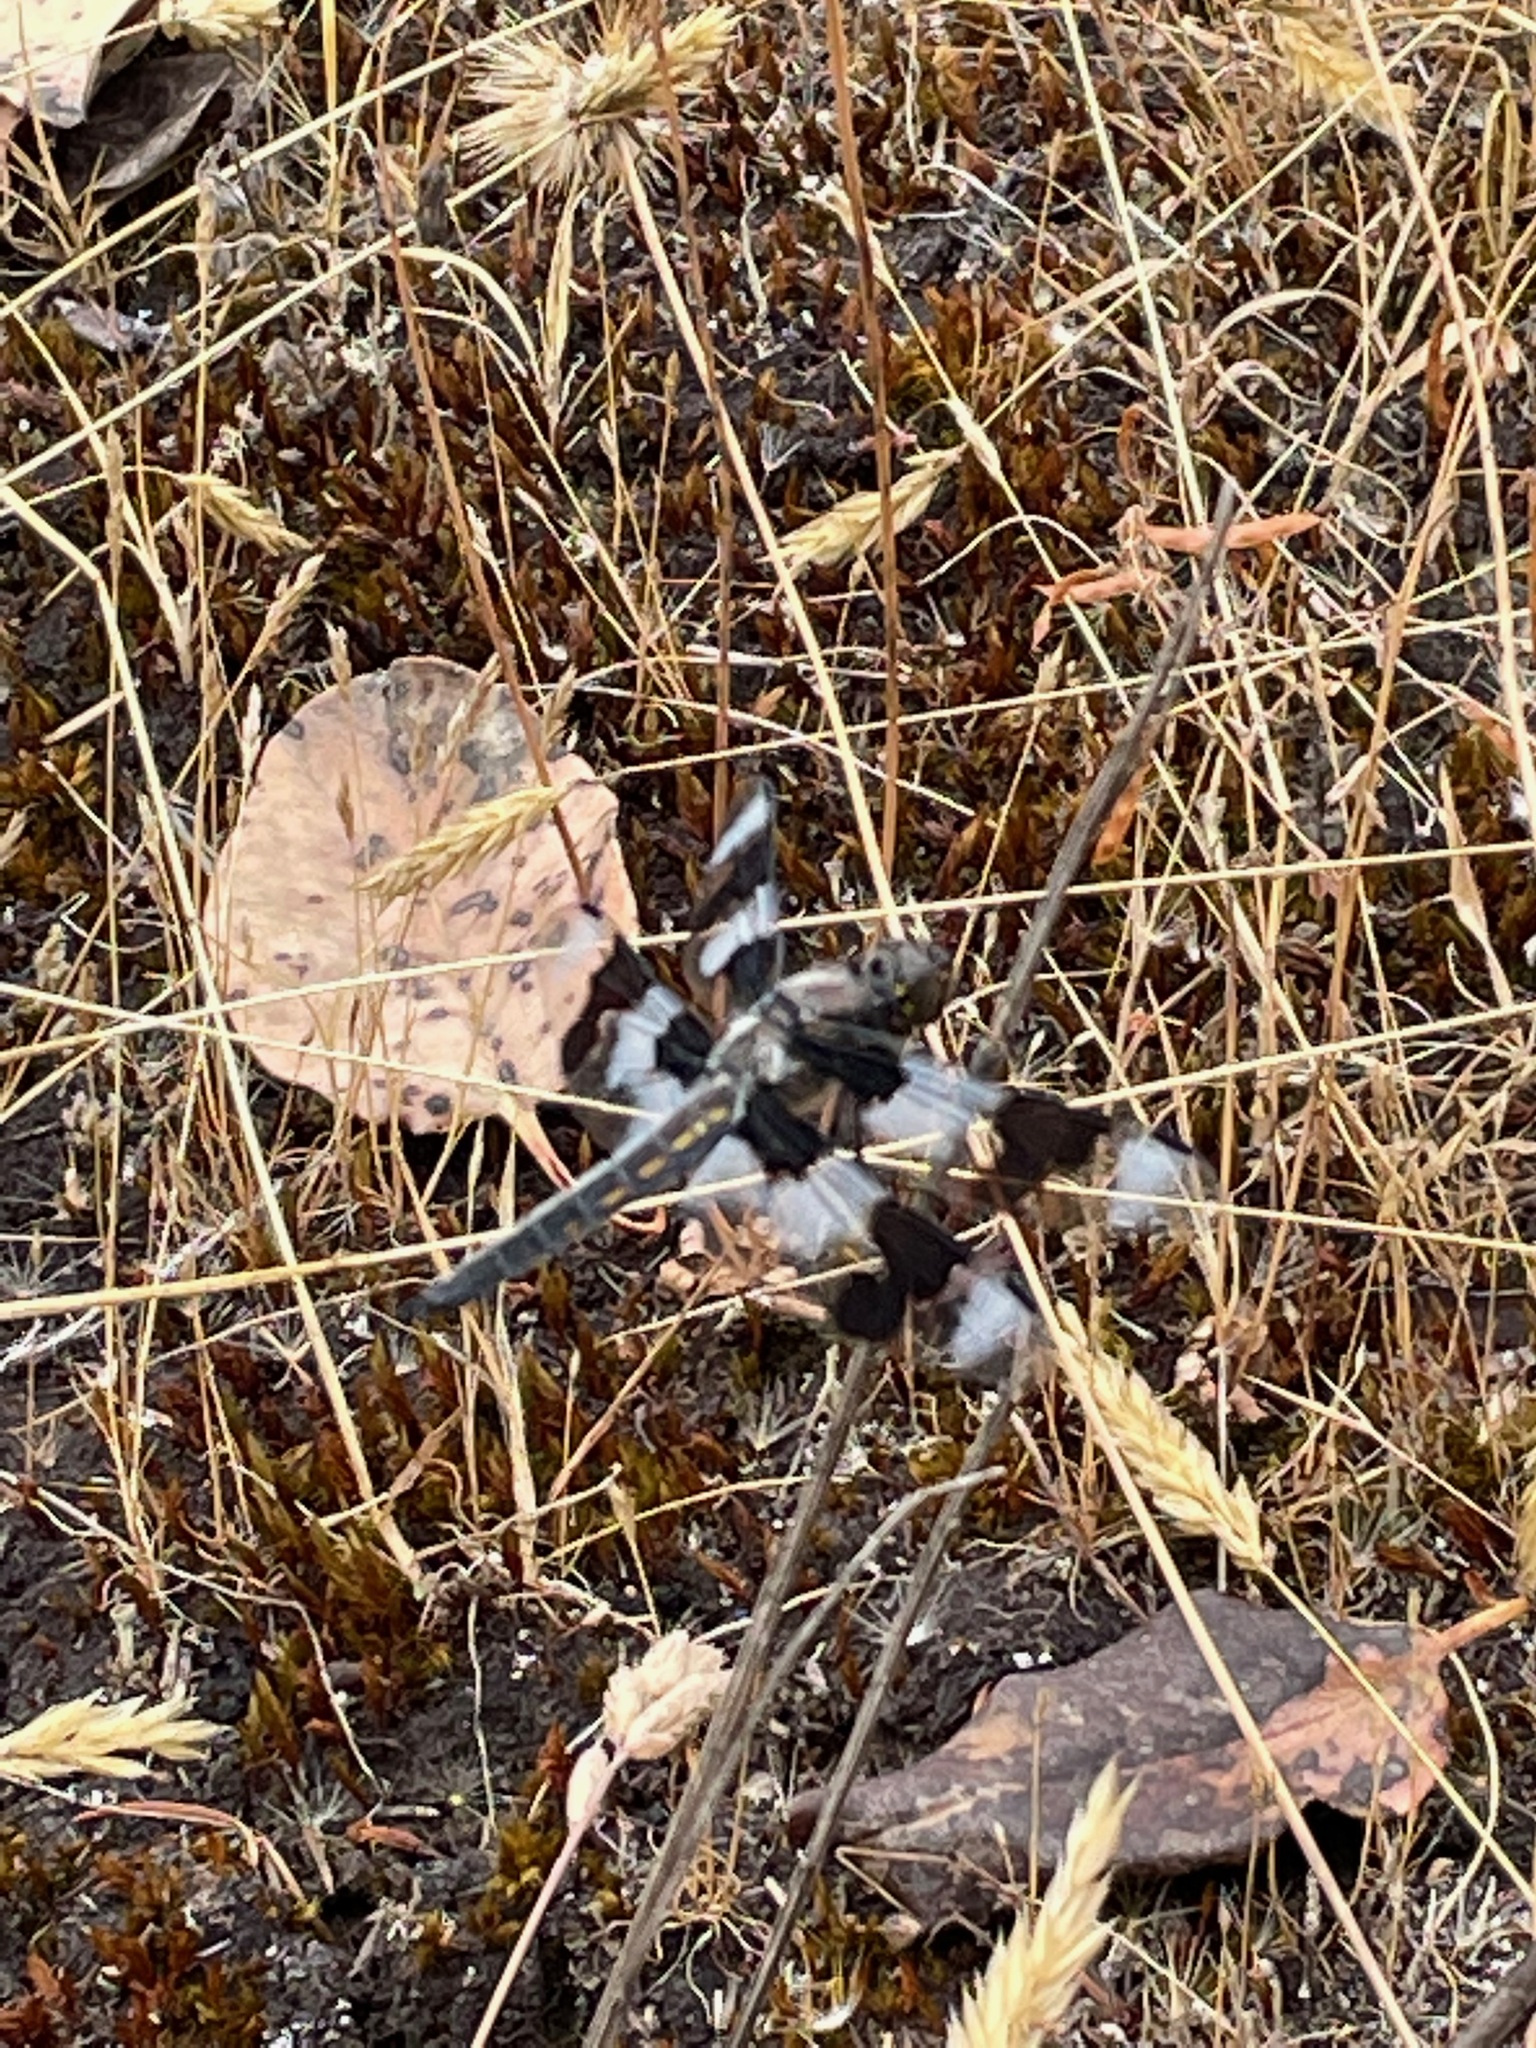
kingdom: Animalia
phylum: Arthropoda
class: Insecta
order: Odonata
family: Libellulidae
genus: Libellula
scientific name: Libellula forensis
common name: Eight-spotted skimmer
